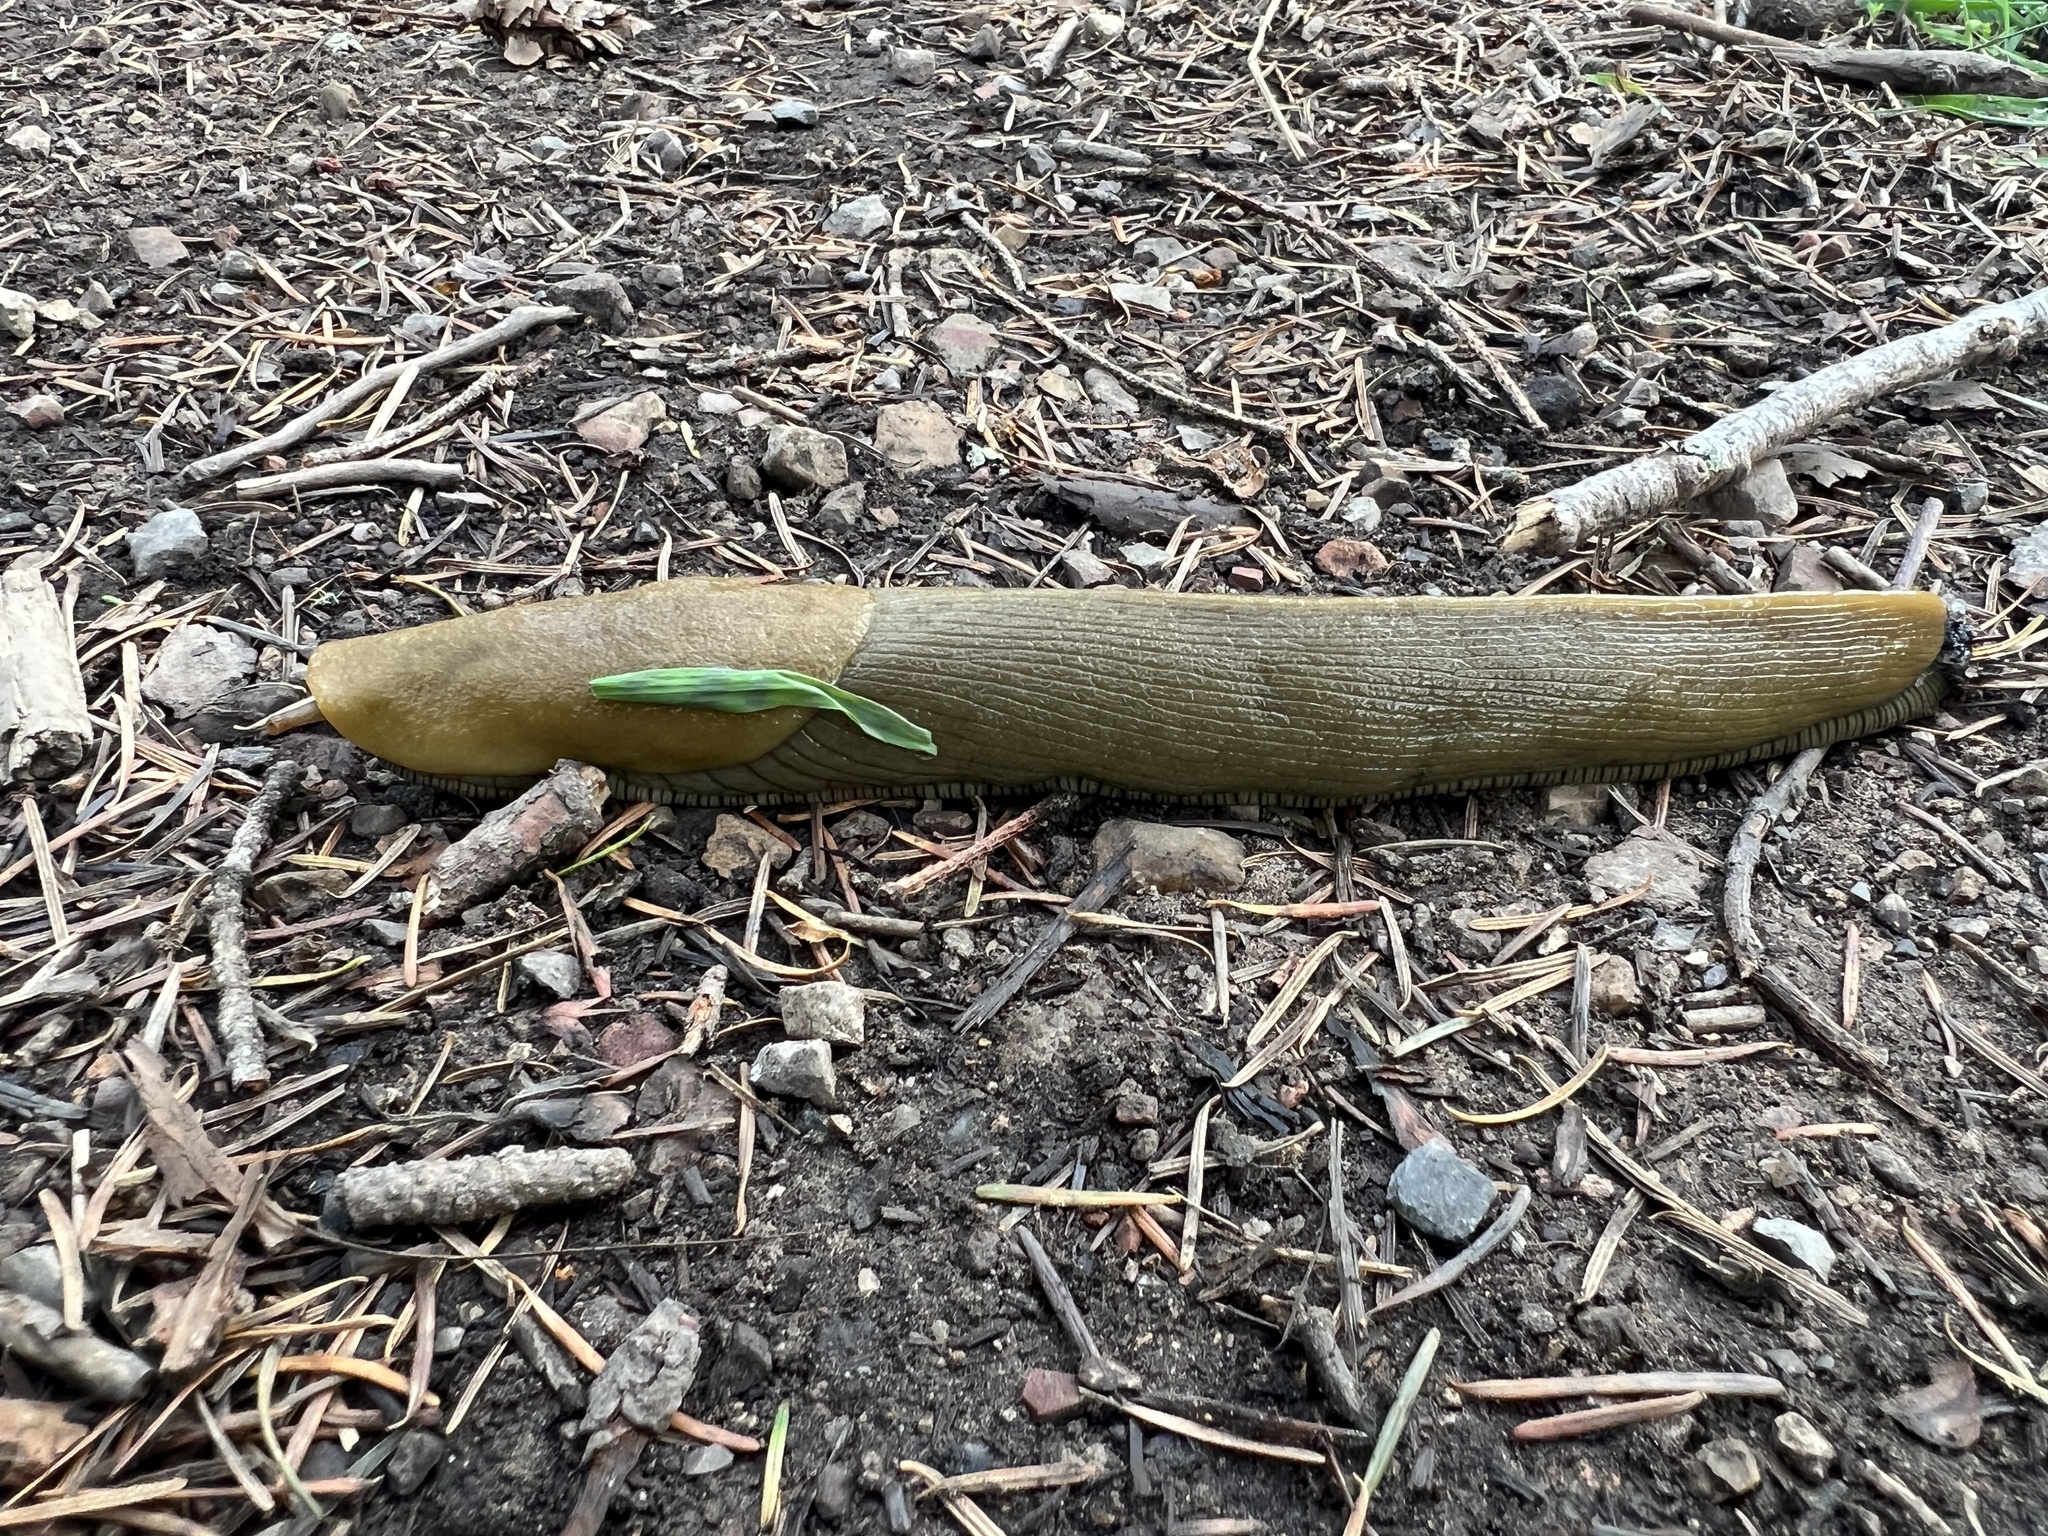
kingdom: Animalia
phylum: Mollusca
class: Gastropoda
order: Stylommatophora
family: Ariolimacidae
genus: Ariolimax
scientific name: Ariolimax buttoni
